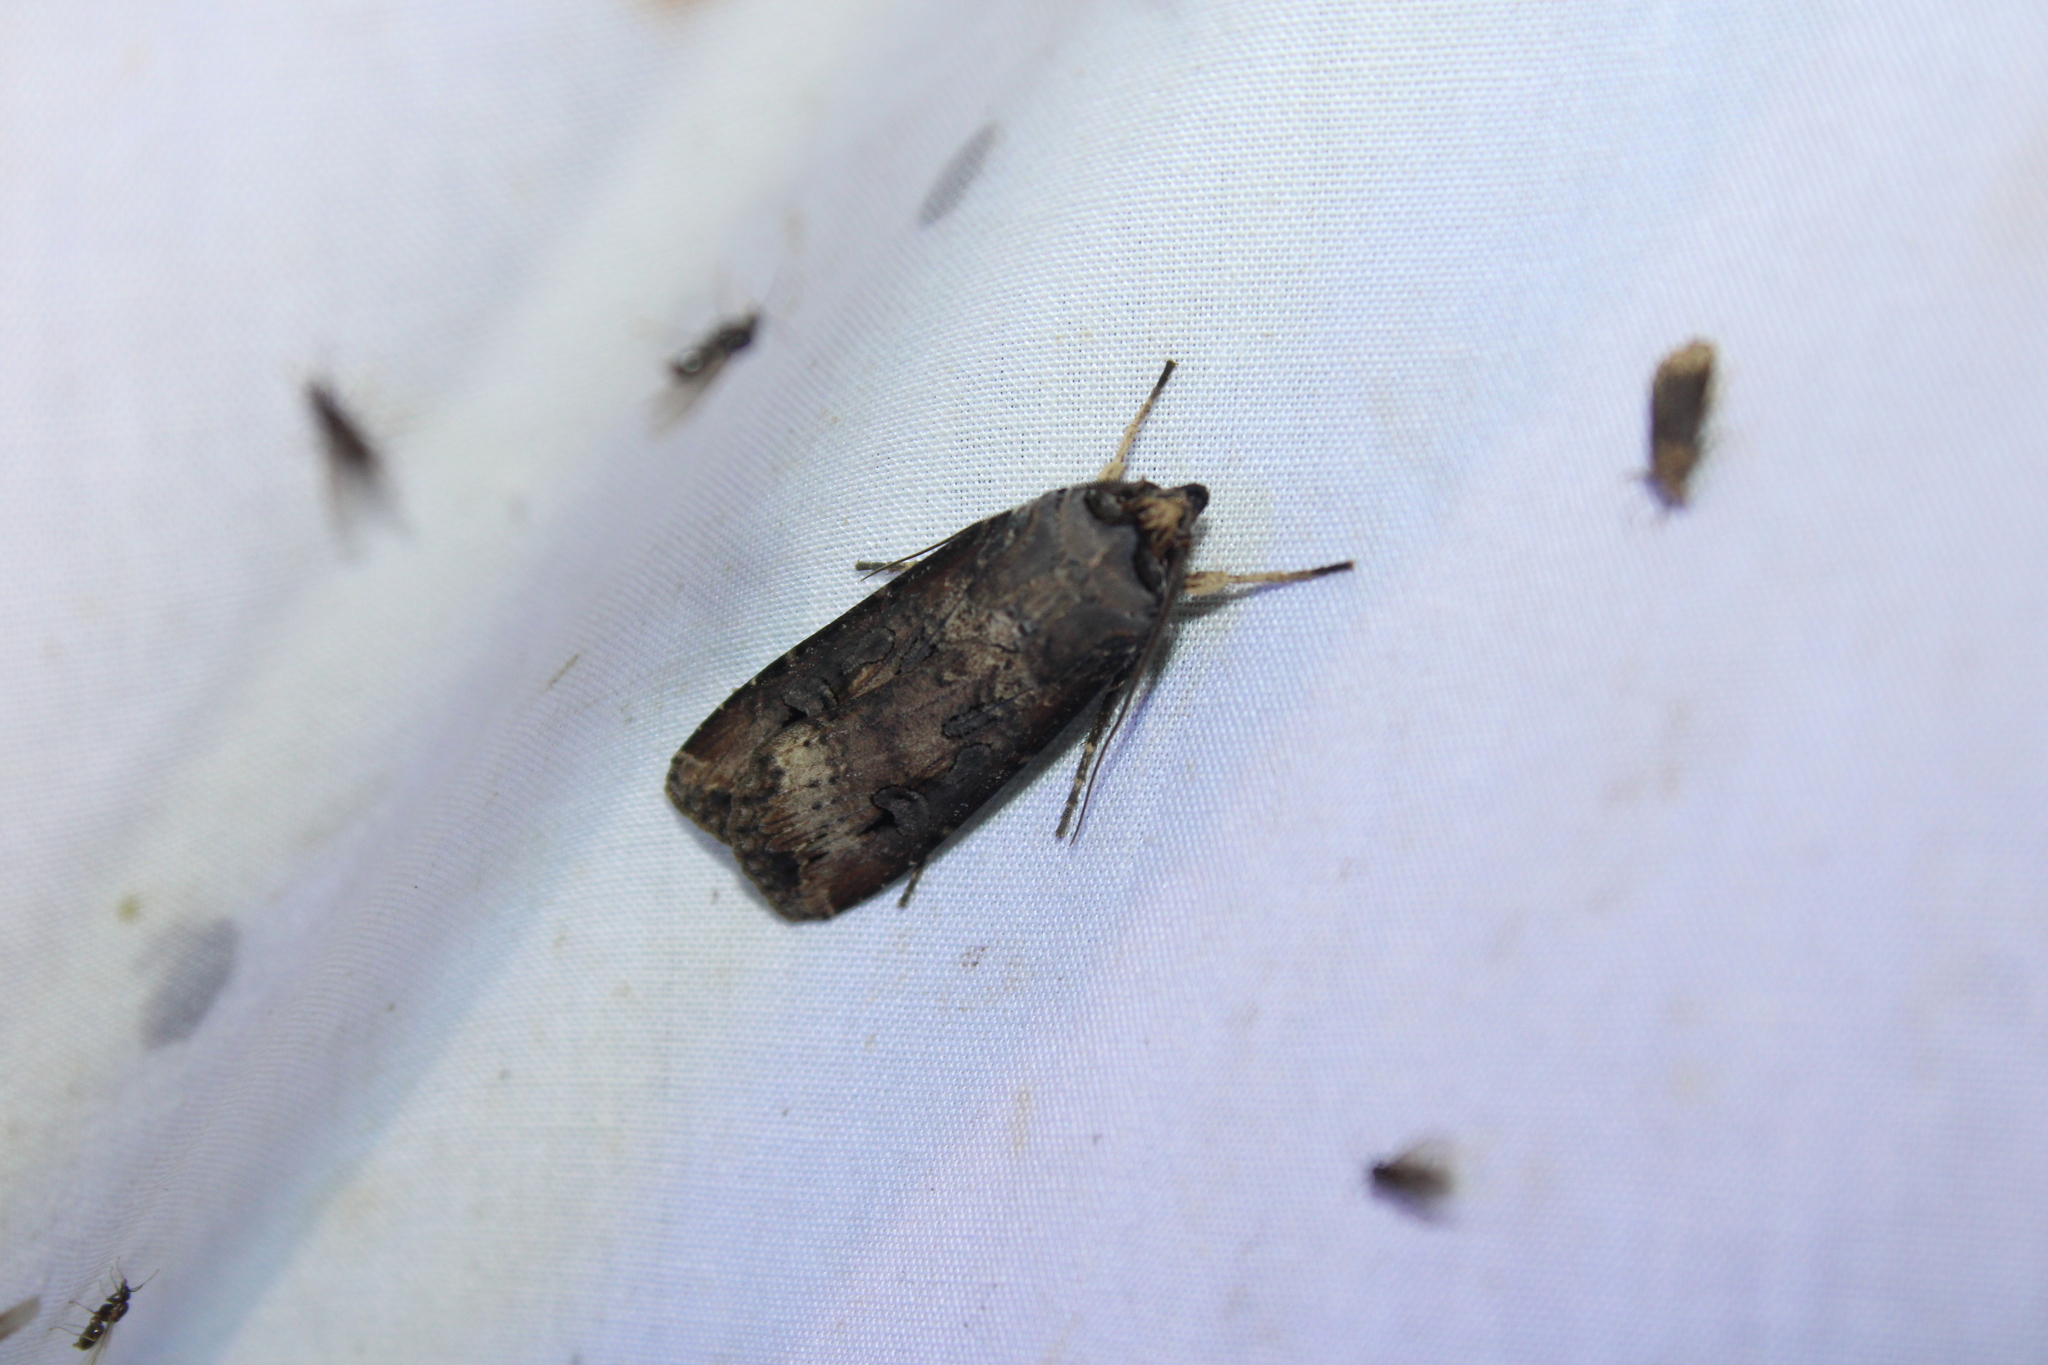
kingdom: Animalia
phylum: Arthropoda
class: Insecta
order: Lepidoptera
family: Noctuidae
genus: Agrotis
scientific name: Agrotis ipsilon
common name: Dark sword-grass
